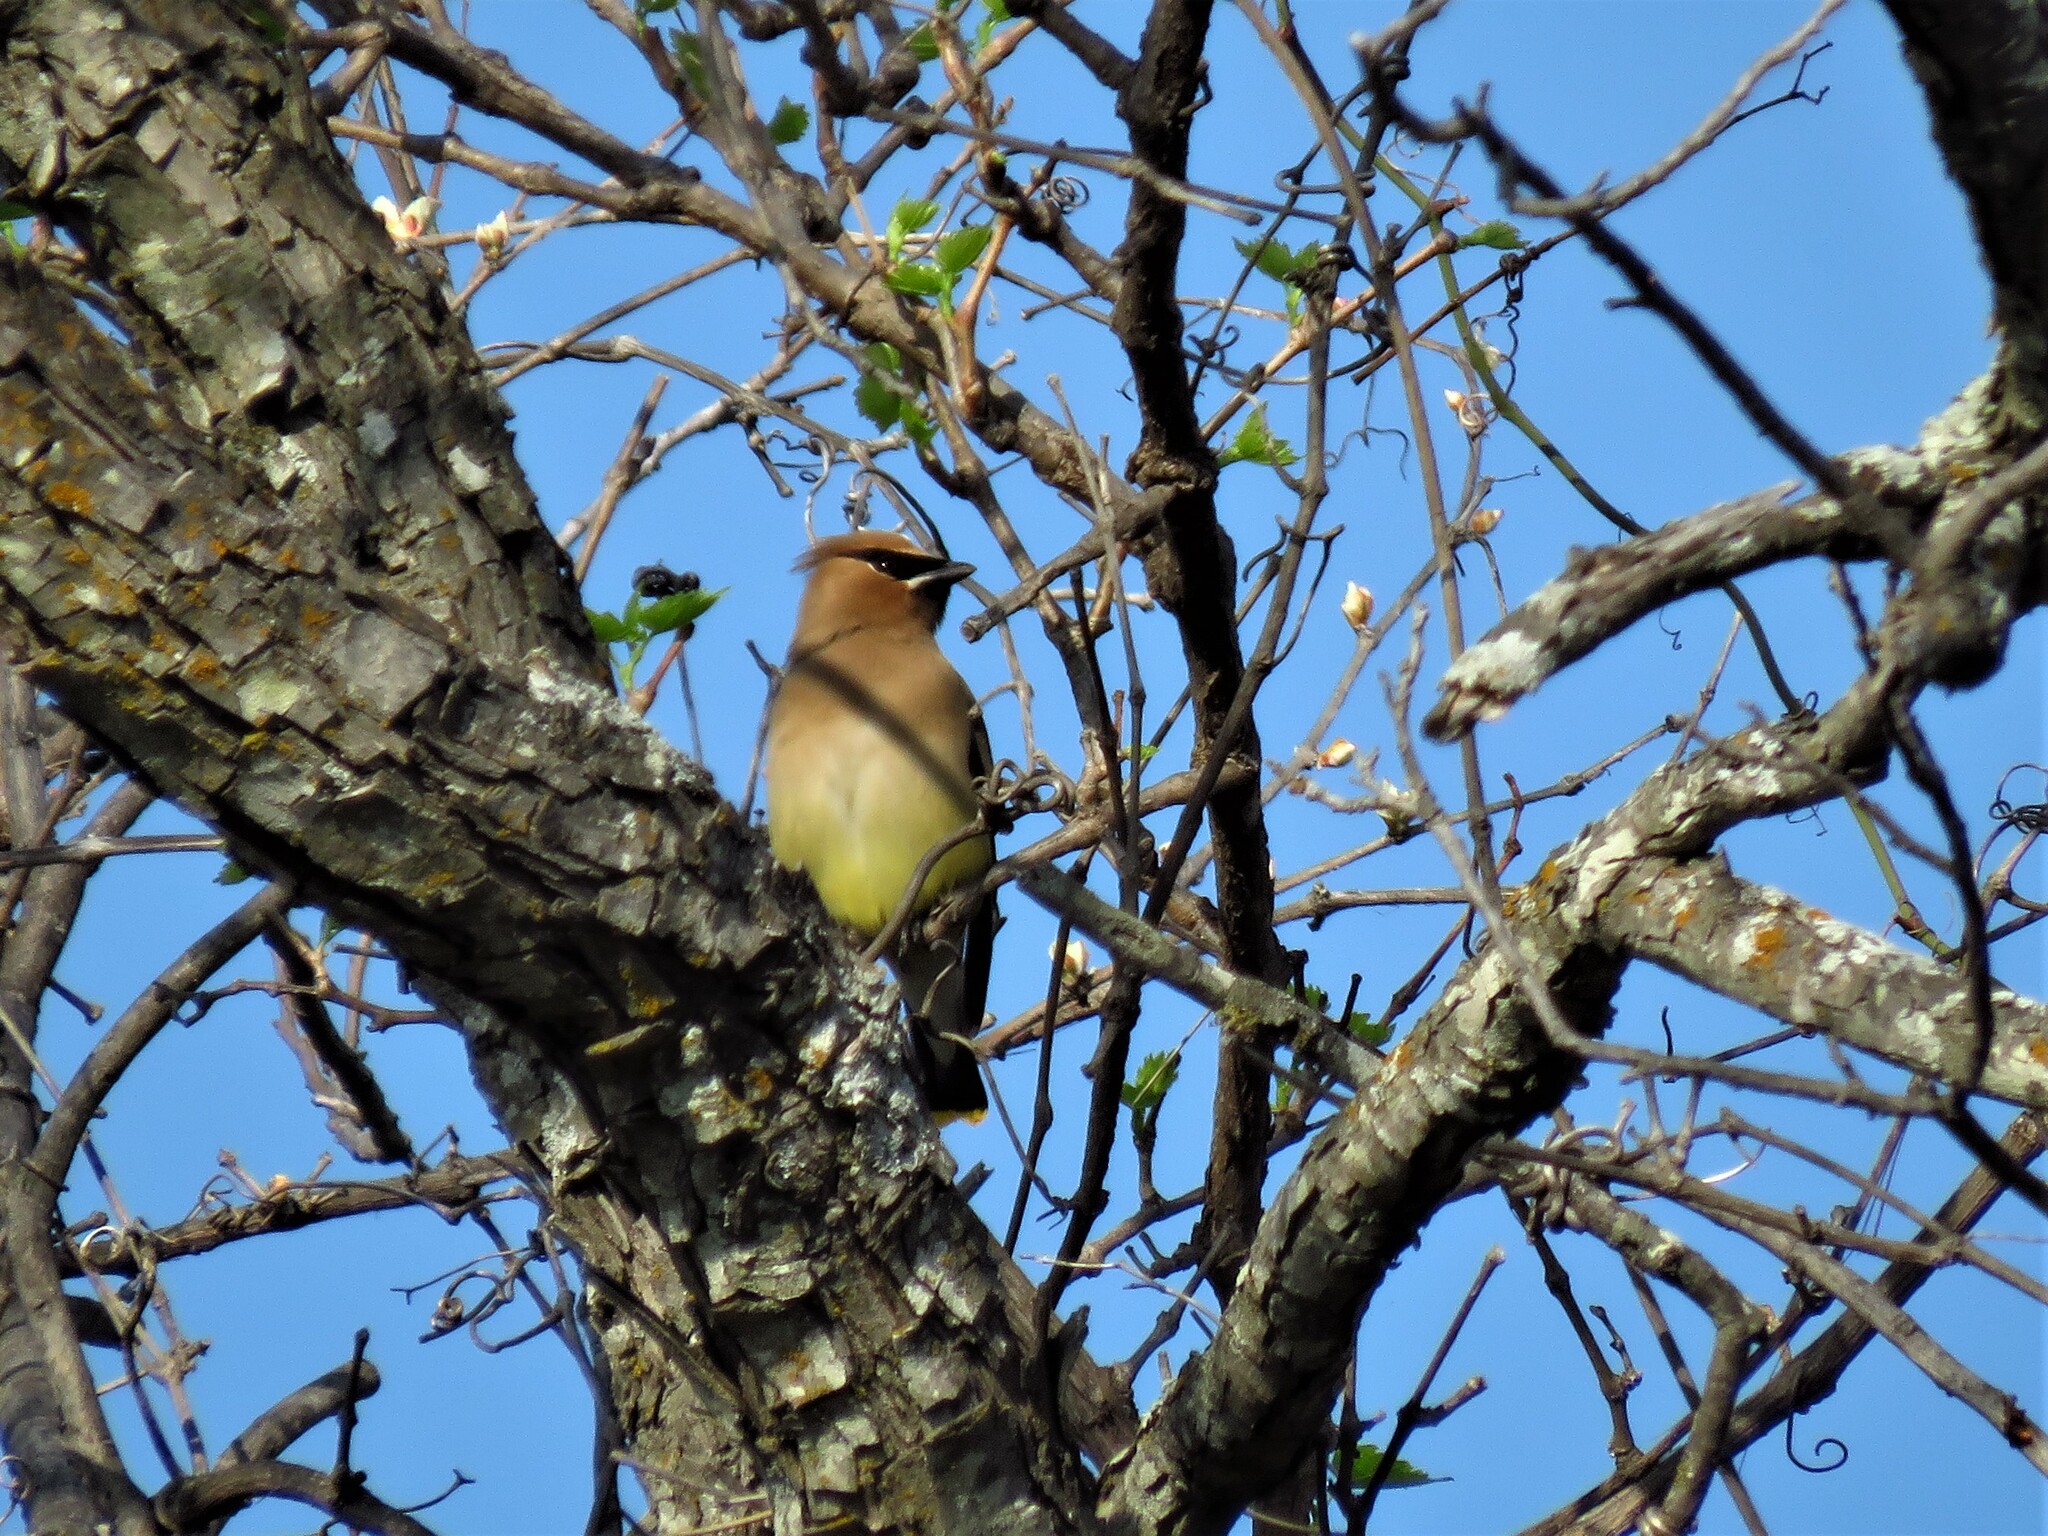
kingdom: Animalia
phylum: Chordata
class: Aves
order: Passeriformes
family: Bombycillidae
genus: Bombycilla
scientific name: Bombycilla cedrorum
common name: Cedar waxwing
